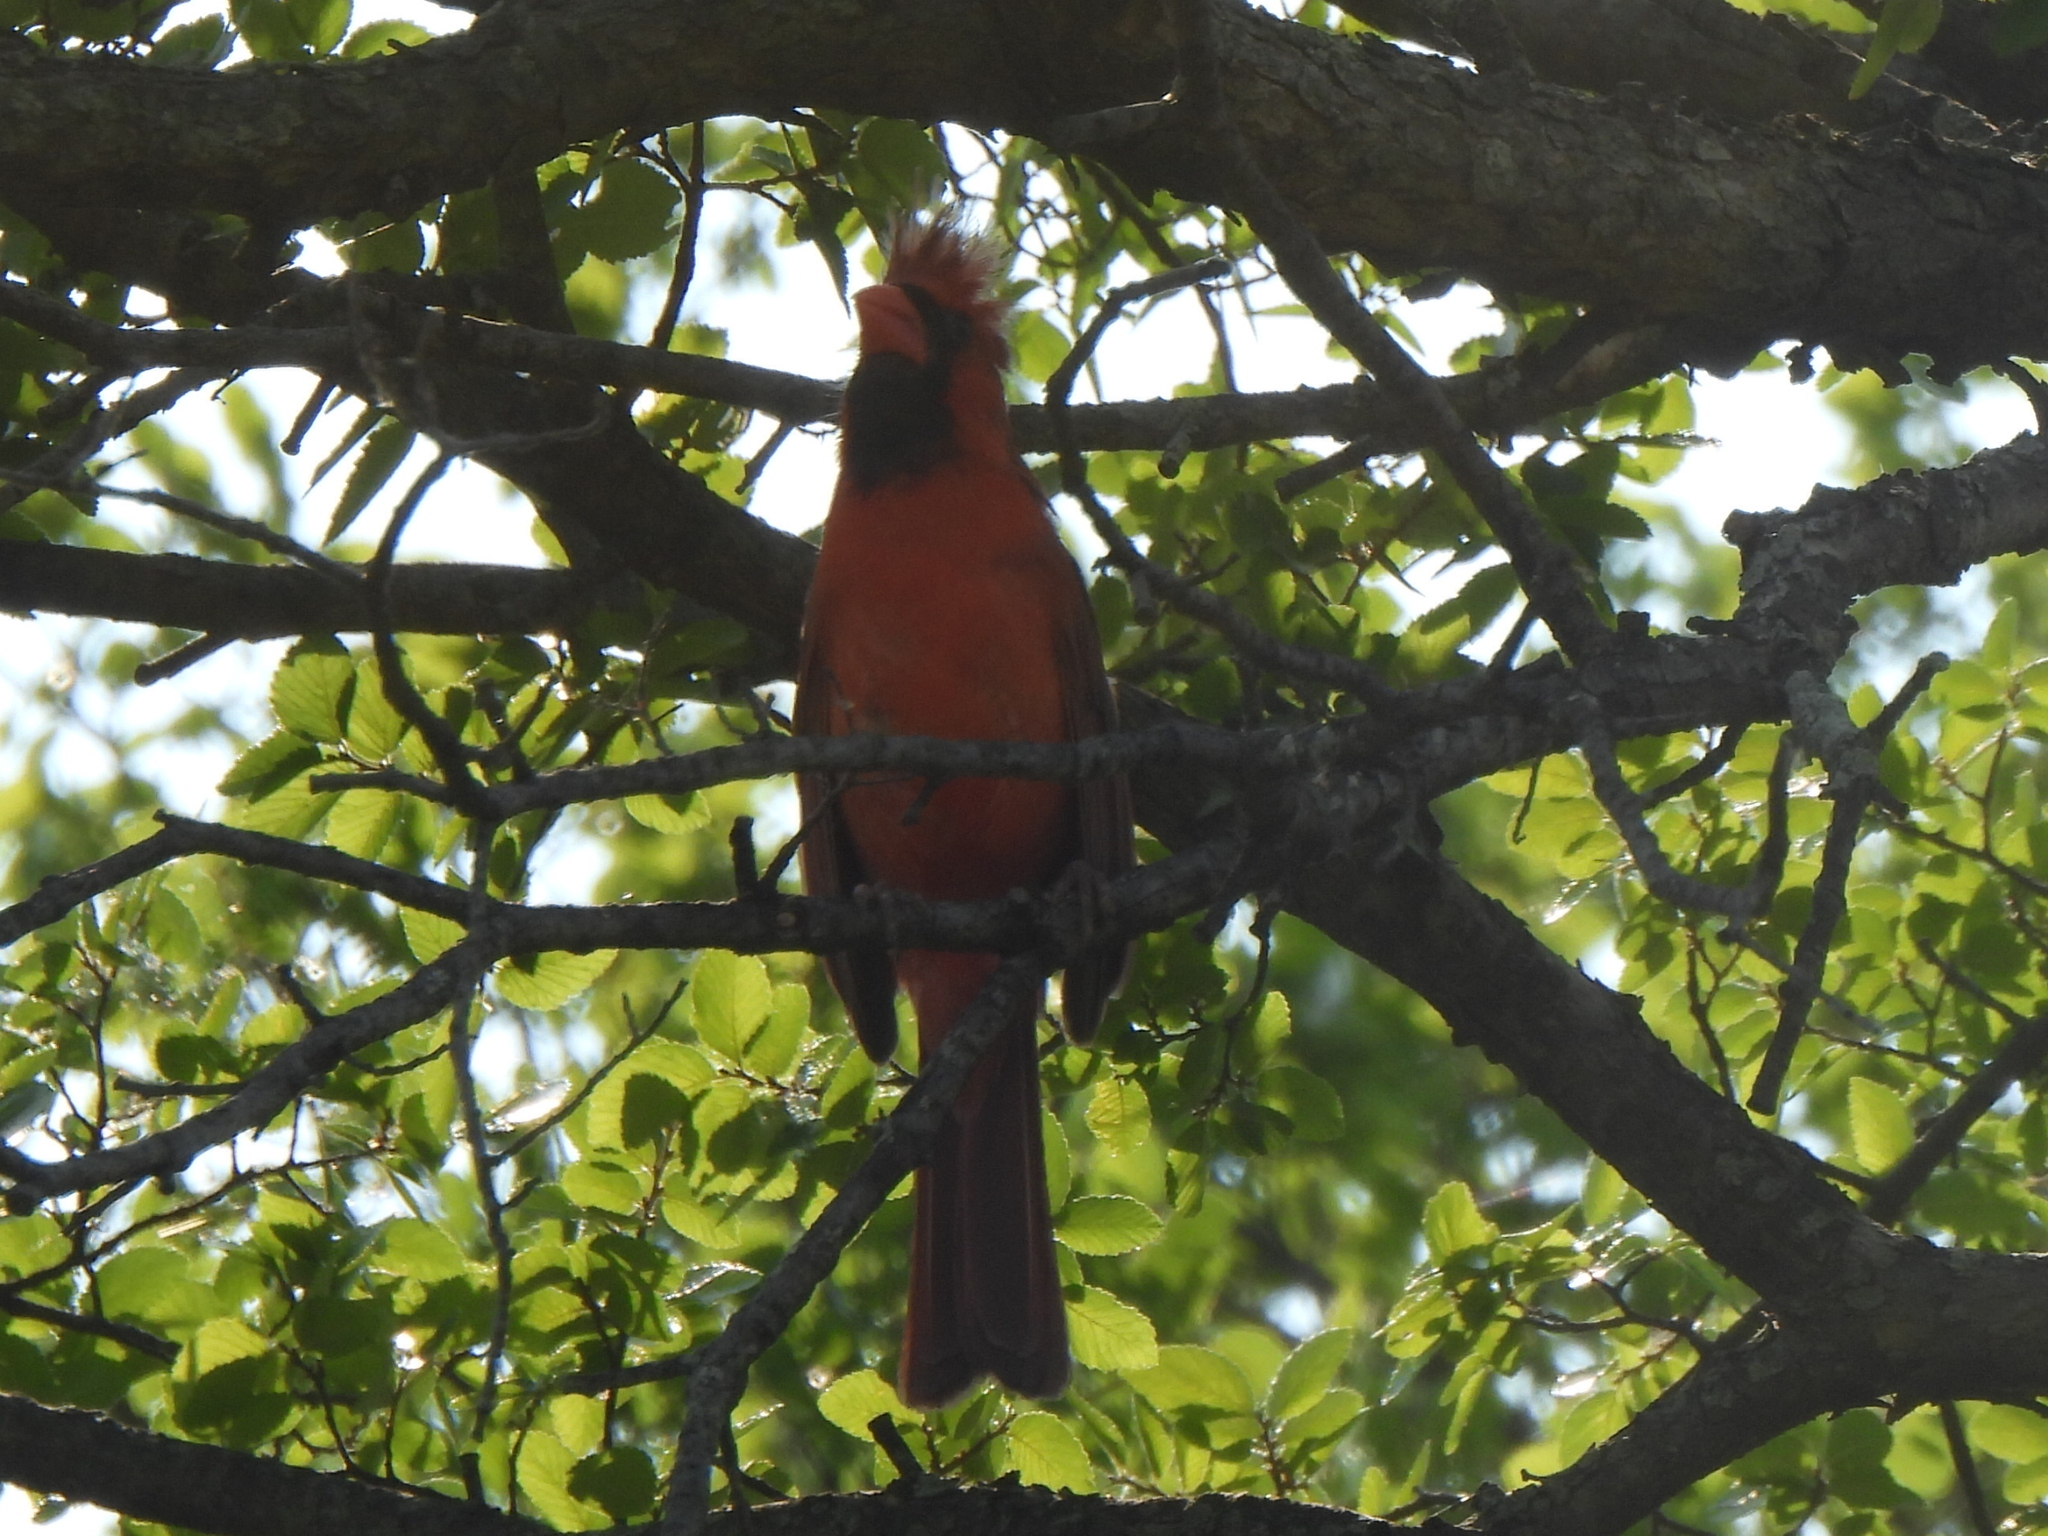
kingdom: Animalia
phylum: Chordata
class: Aves
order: Passeriformes
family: Cardinalidae
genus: Cardinalis
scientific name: Cardinalis cardinalis
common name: Northern cardinal
